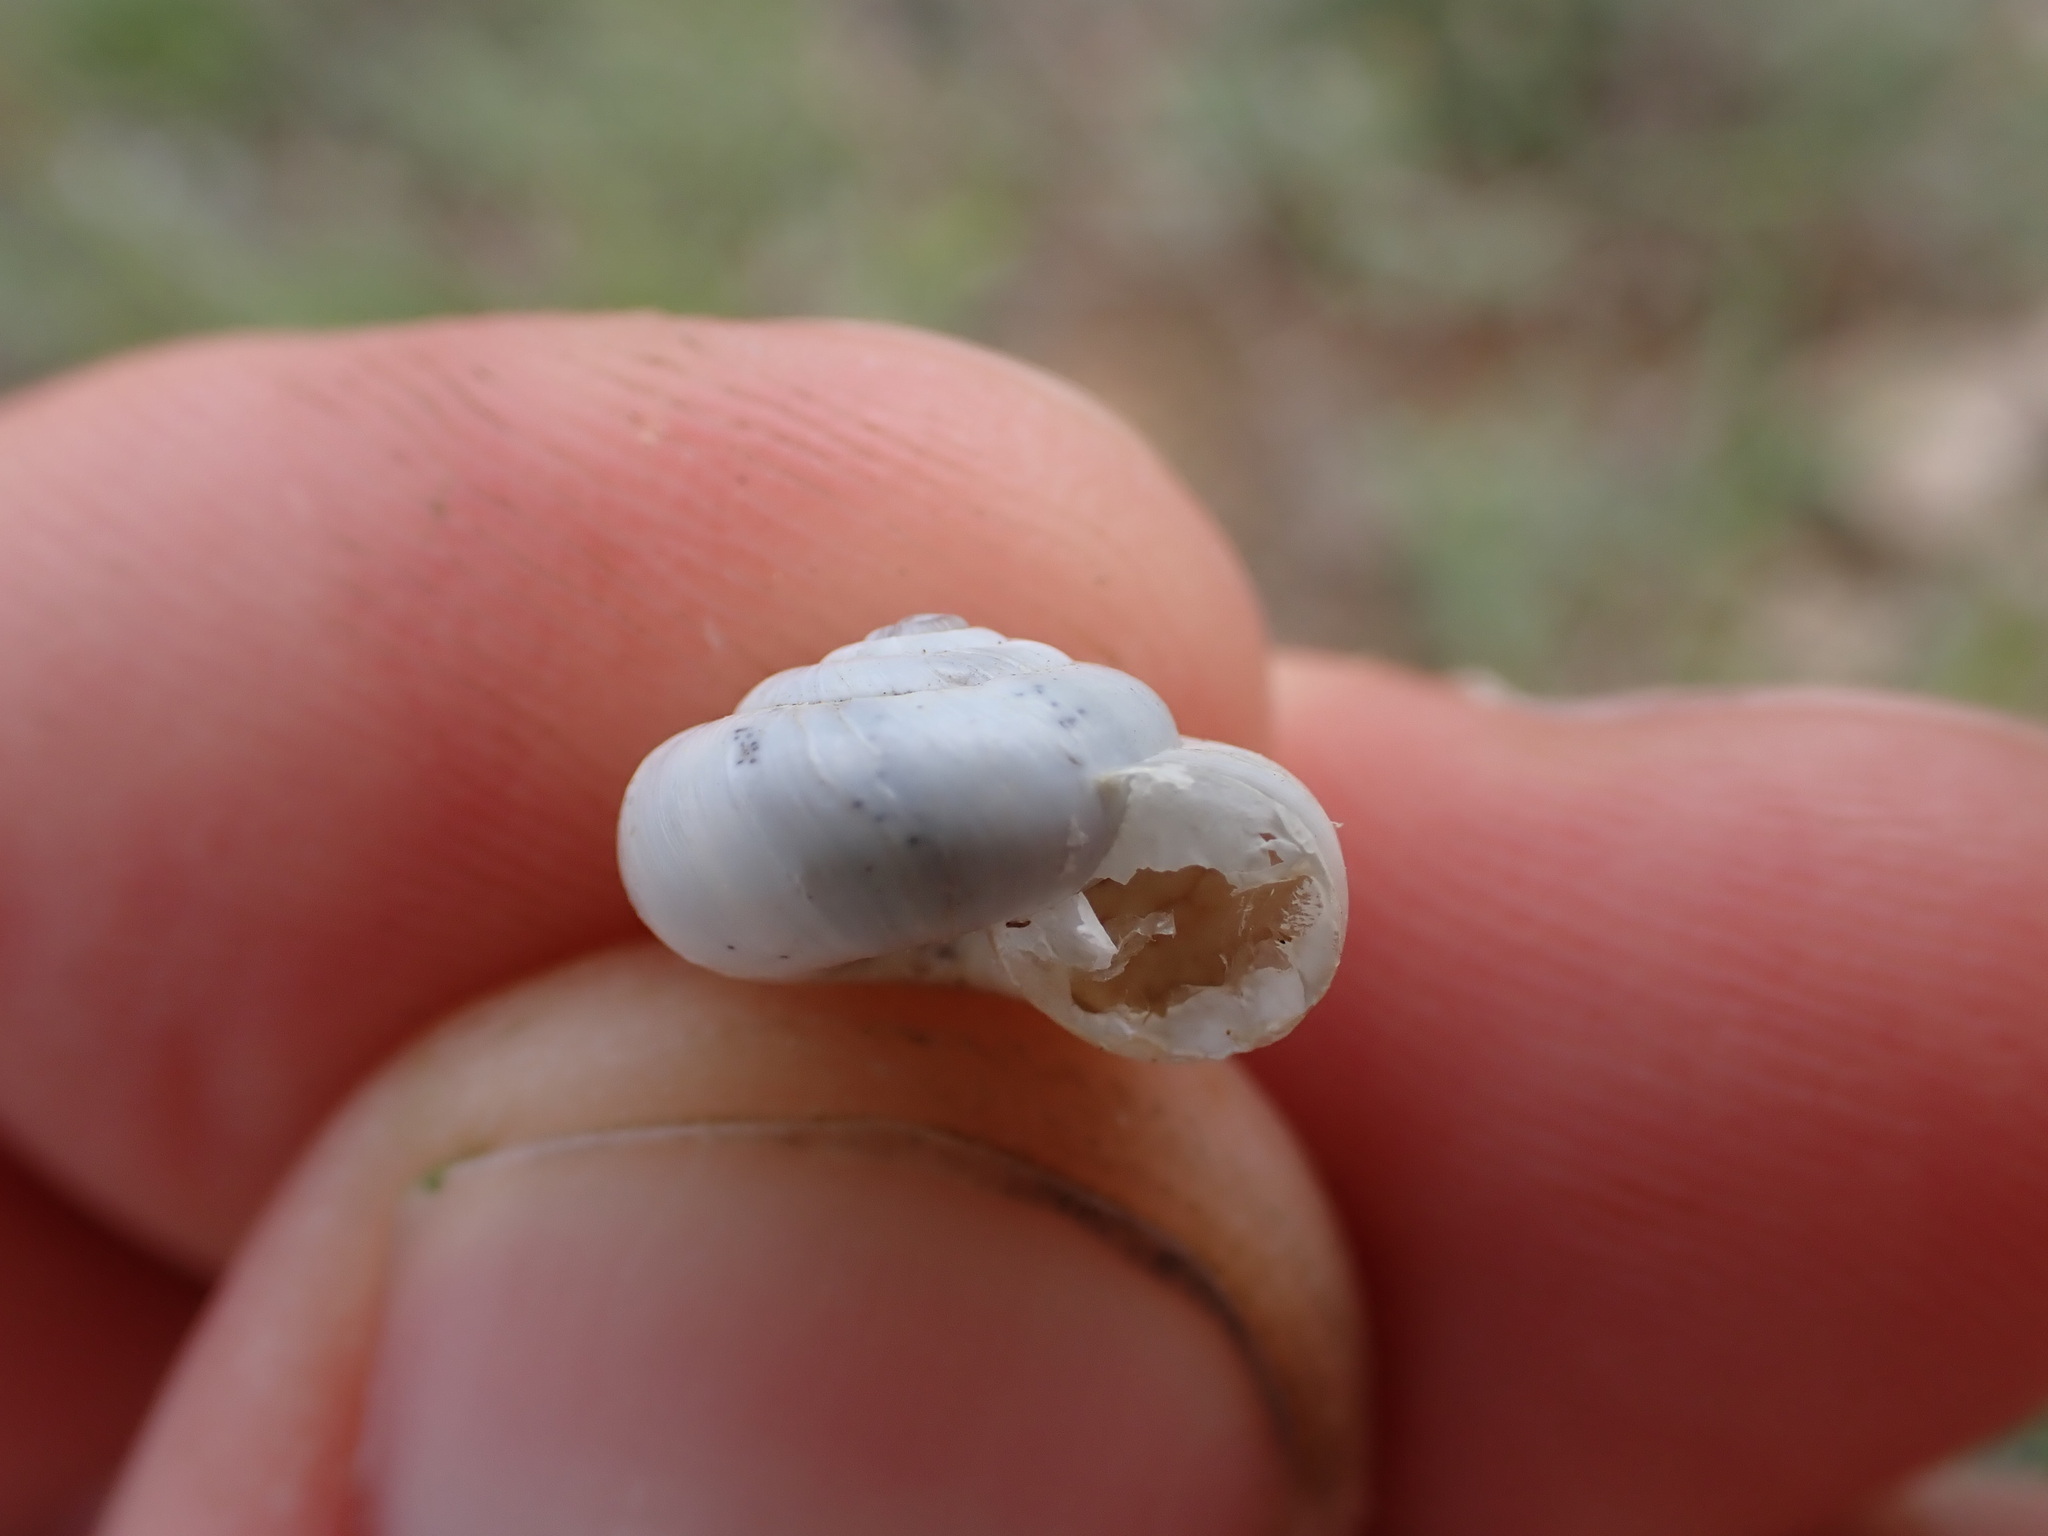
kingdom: Animalia
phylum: Mollusca
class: Gastropoda
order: Stylommatophora
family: Geomitridae
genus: Xeropicta
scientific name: Xeropicta derbentina
